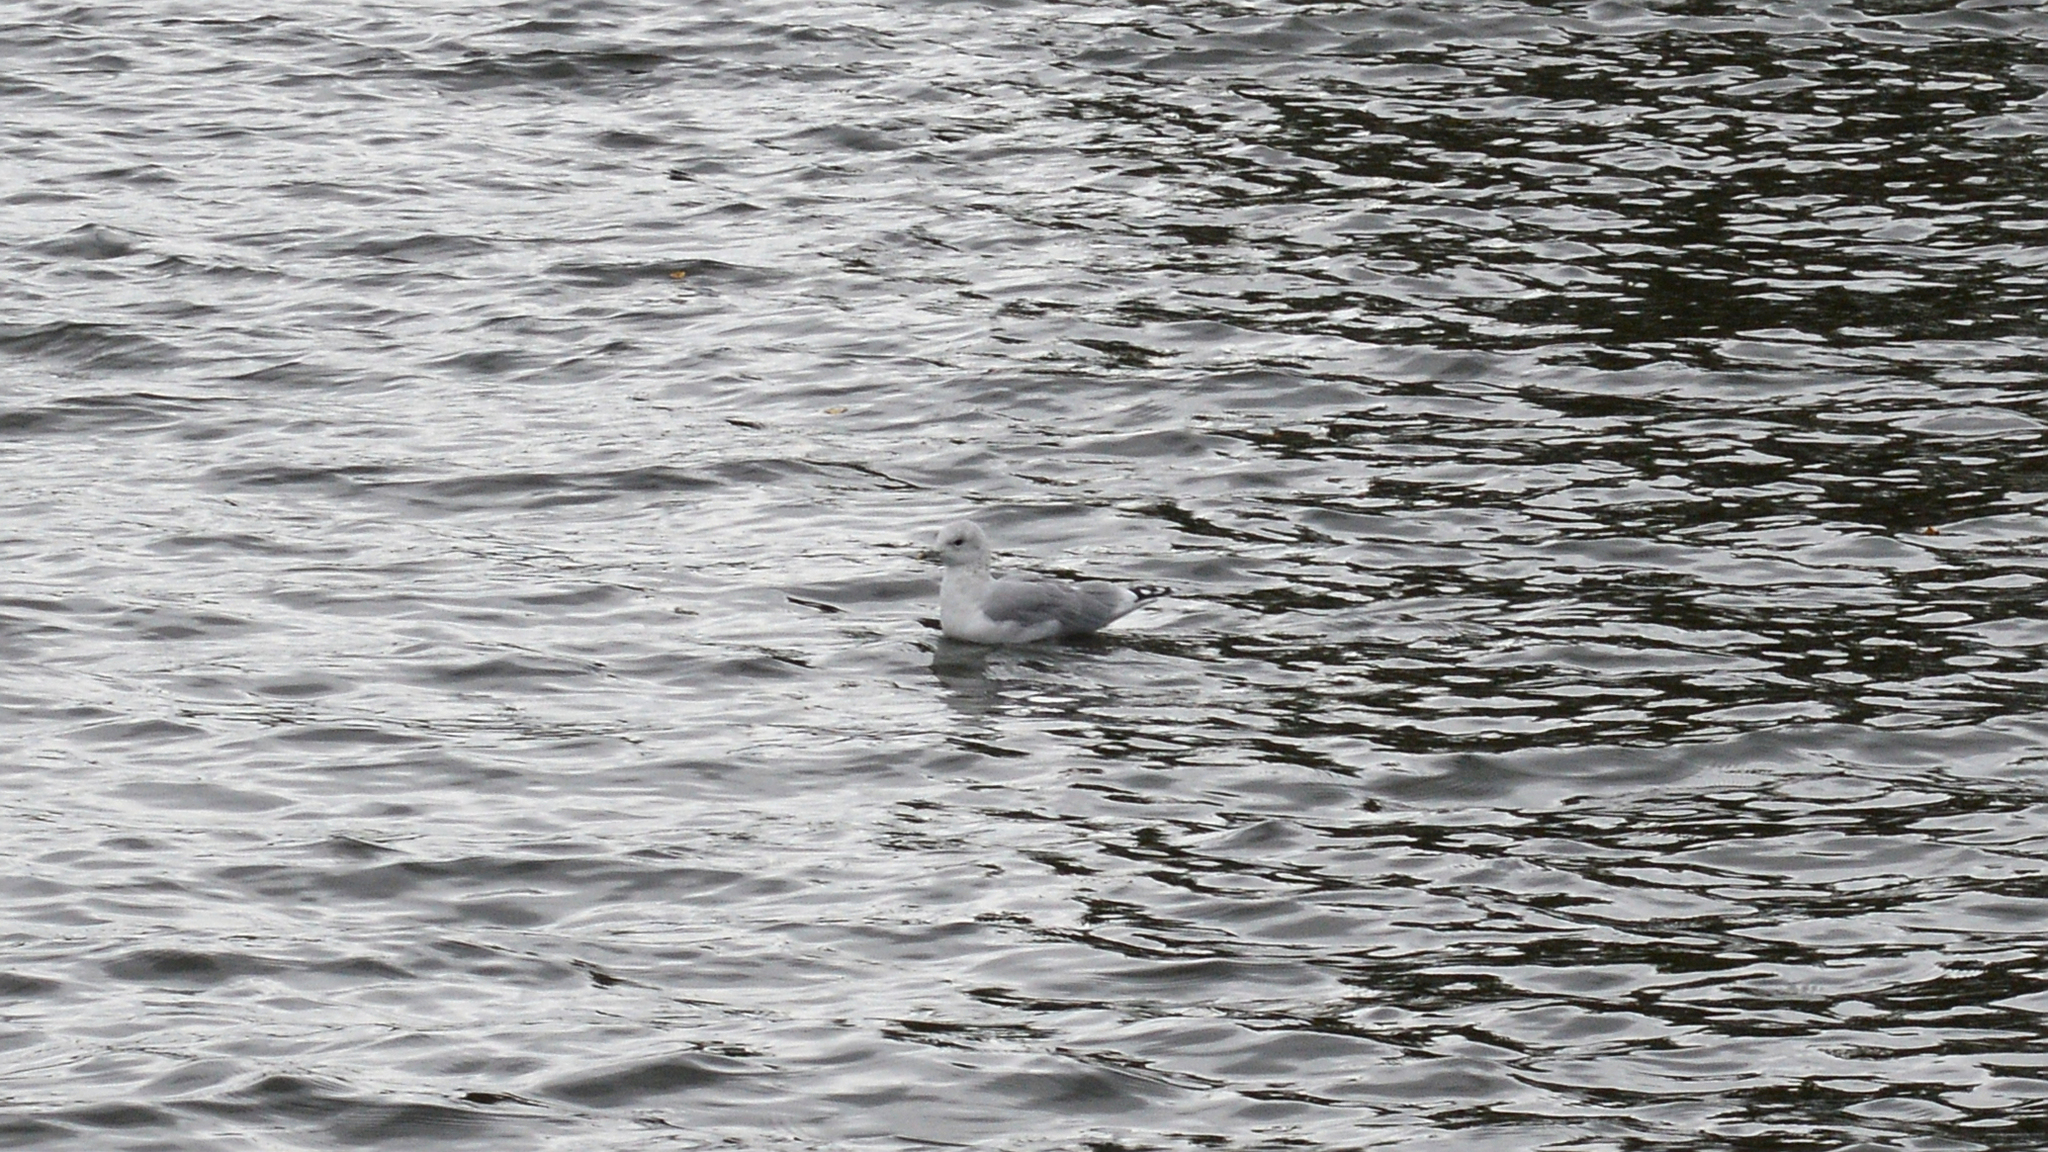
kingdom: Animalia
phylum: Chordata
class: Aves
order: Charadriiformes
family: Laridae
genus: Larus
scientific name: Larus canus
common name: Mew gull
